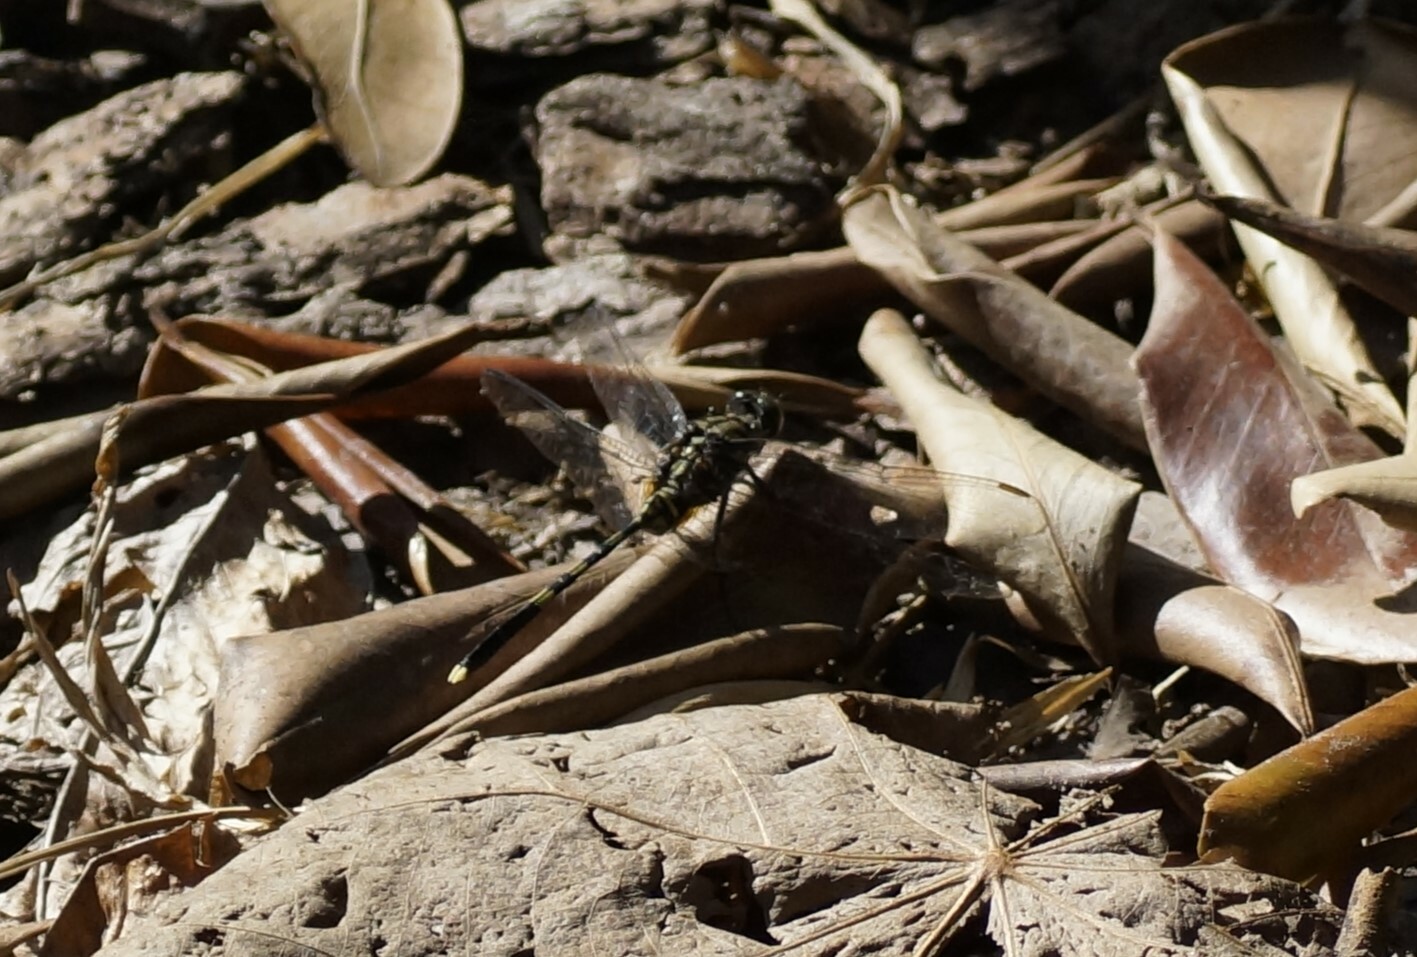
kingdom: Animalia
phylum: Arthropoda
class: Insecta
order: Odonata
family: Libellulidae
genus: Orthetrum
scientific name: Orthetrum serapia
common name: Green skimmer
